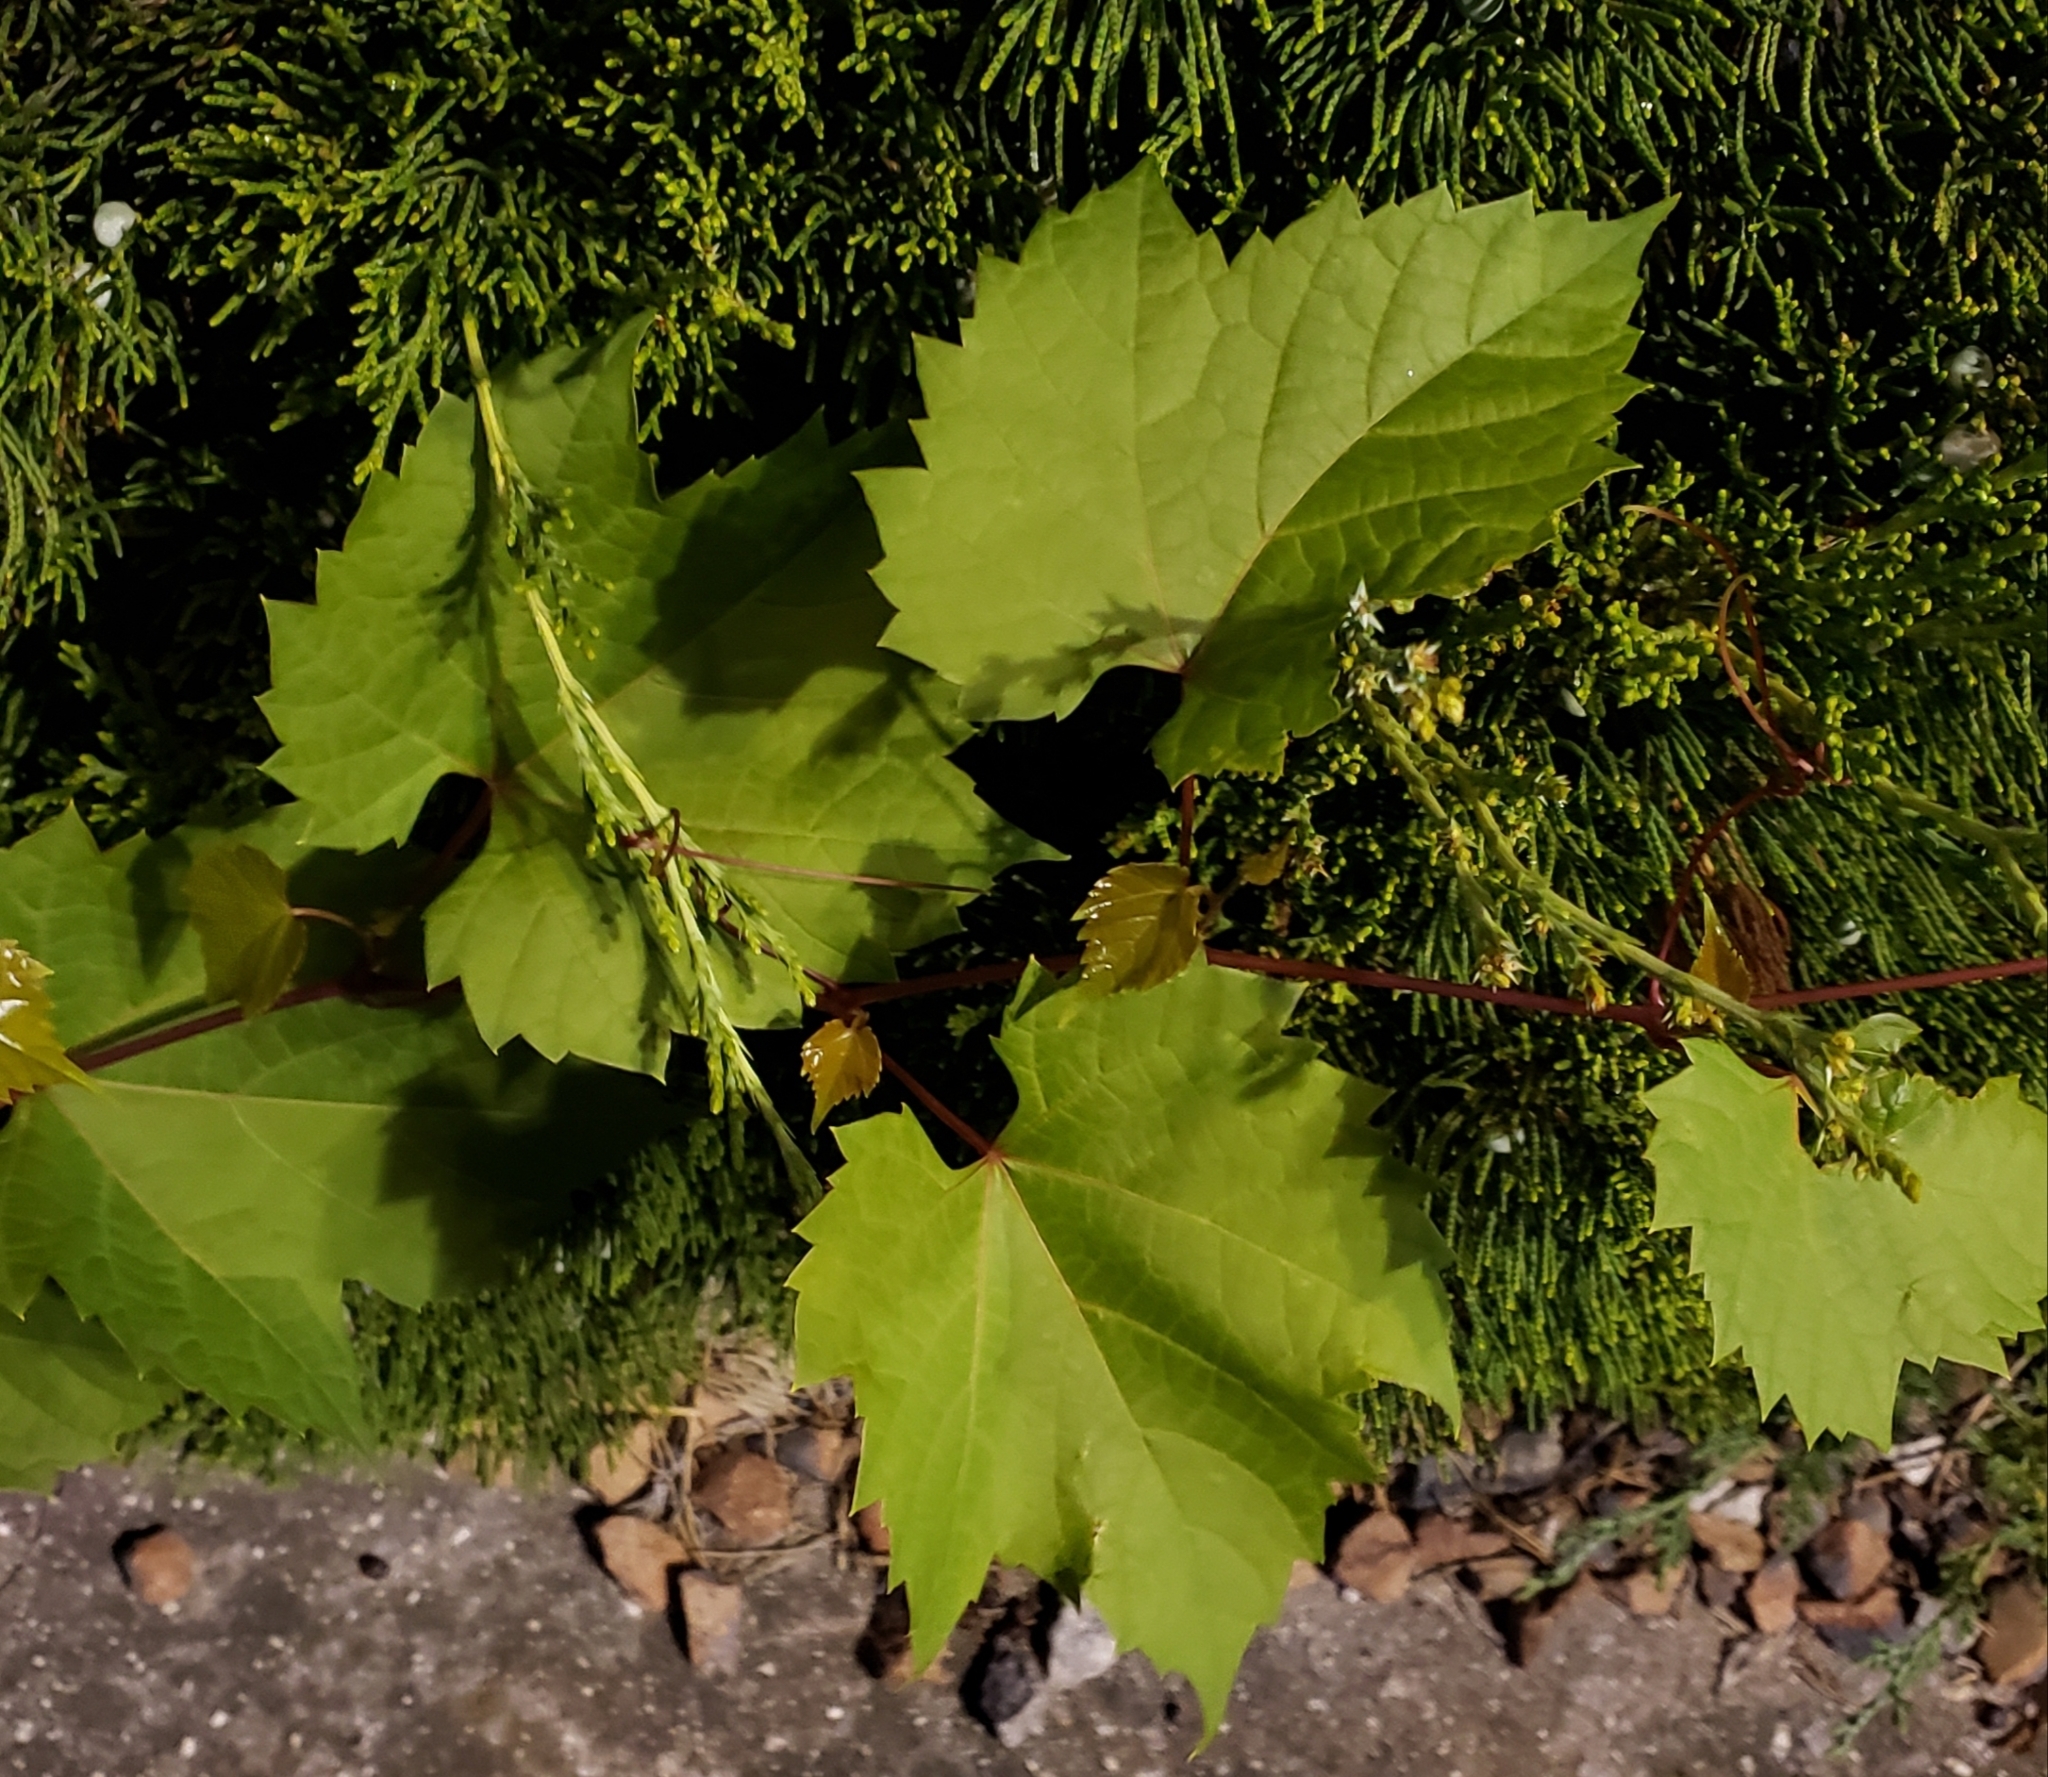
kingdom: Plantae
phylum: Tracheophyta
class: Magnoliopsida
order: Vitales
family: Vitaceae
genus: Vitis
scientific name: Vitis riparia
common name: Frost grape
